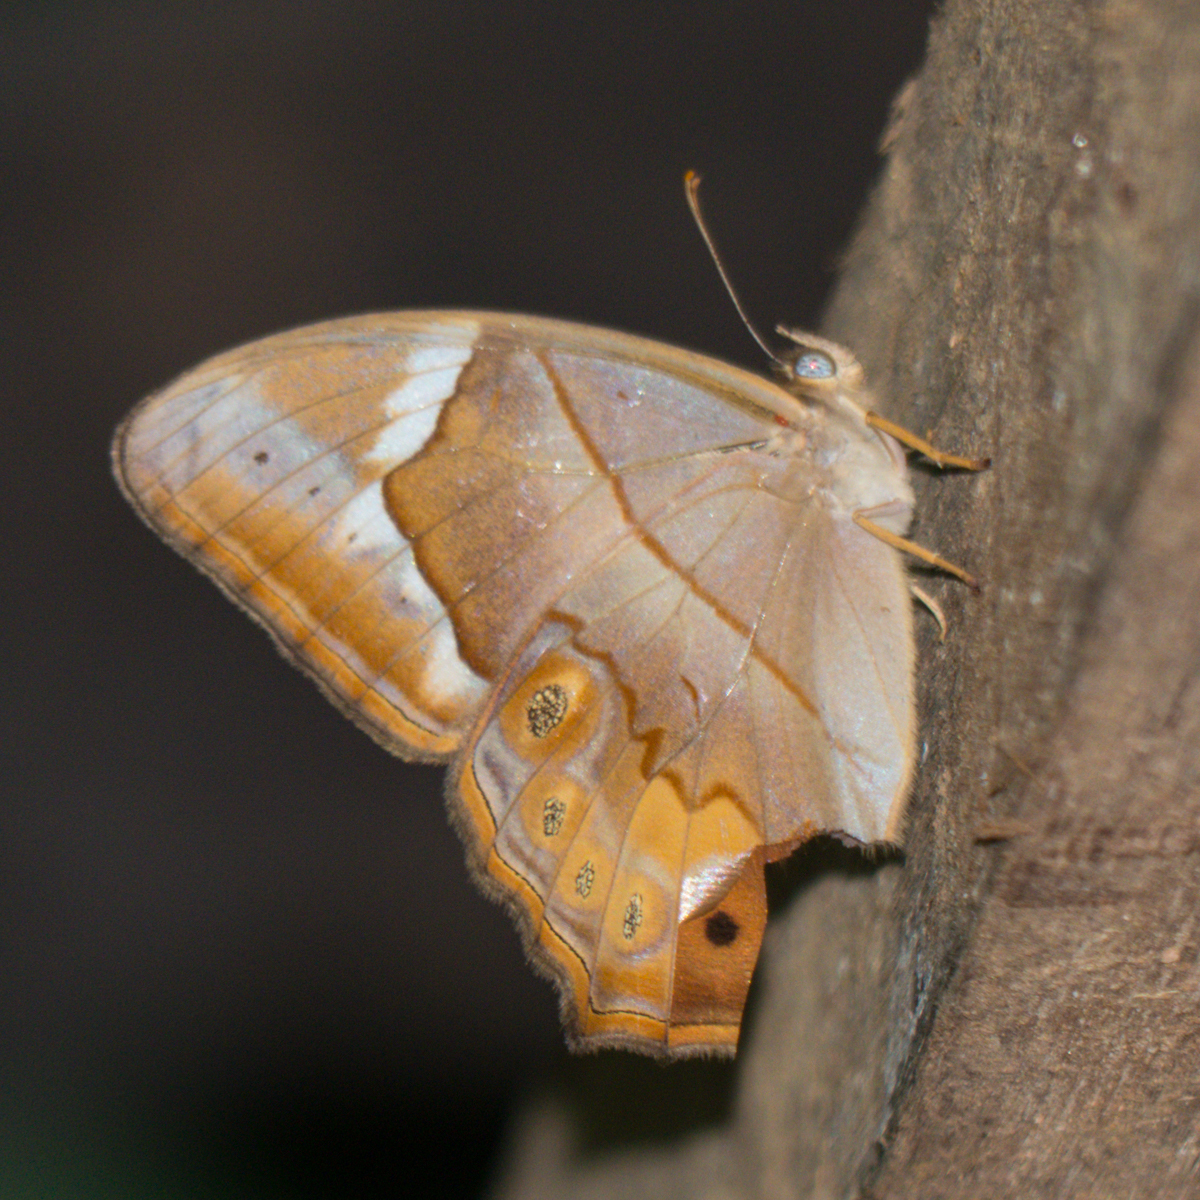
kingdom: Animalia
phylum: Arthropoda
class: Insecta
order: Lepidoptera
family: Nymphalidae
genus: Lethe
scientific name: Lethe minerva
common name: Banded red forester
